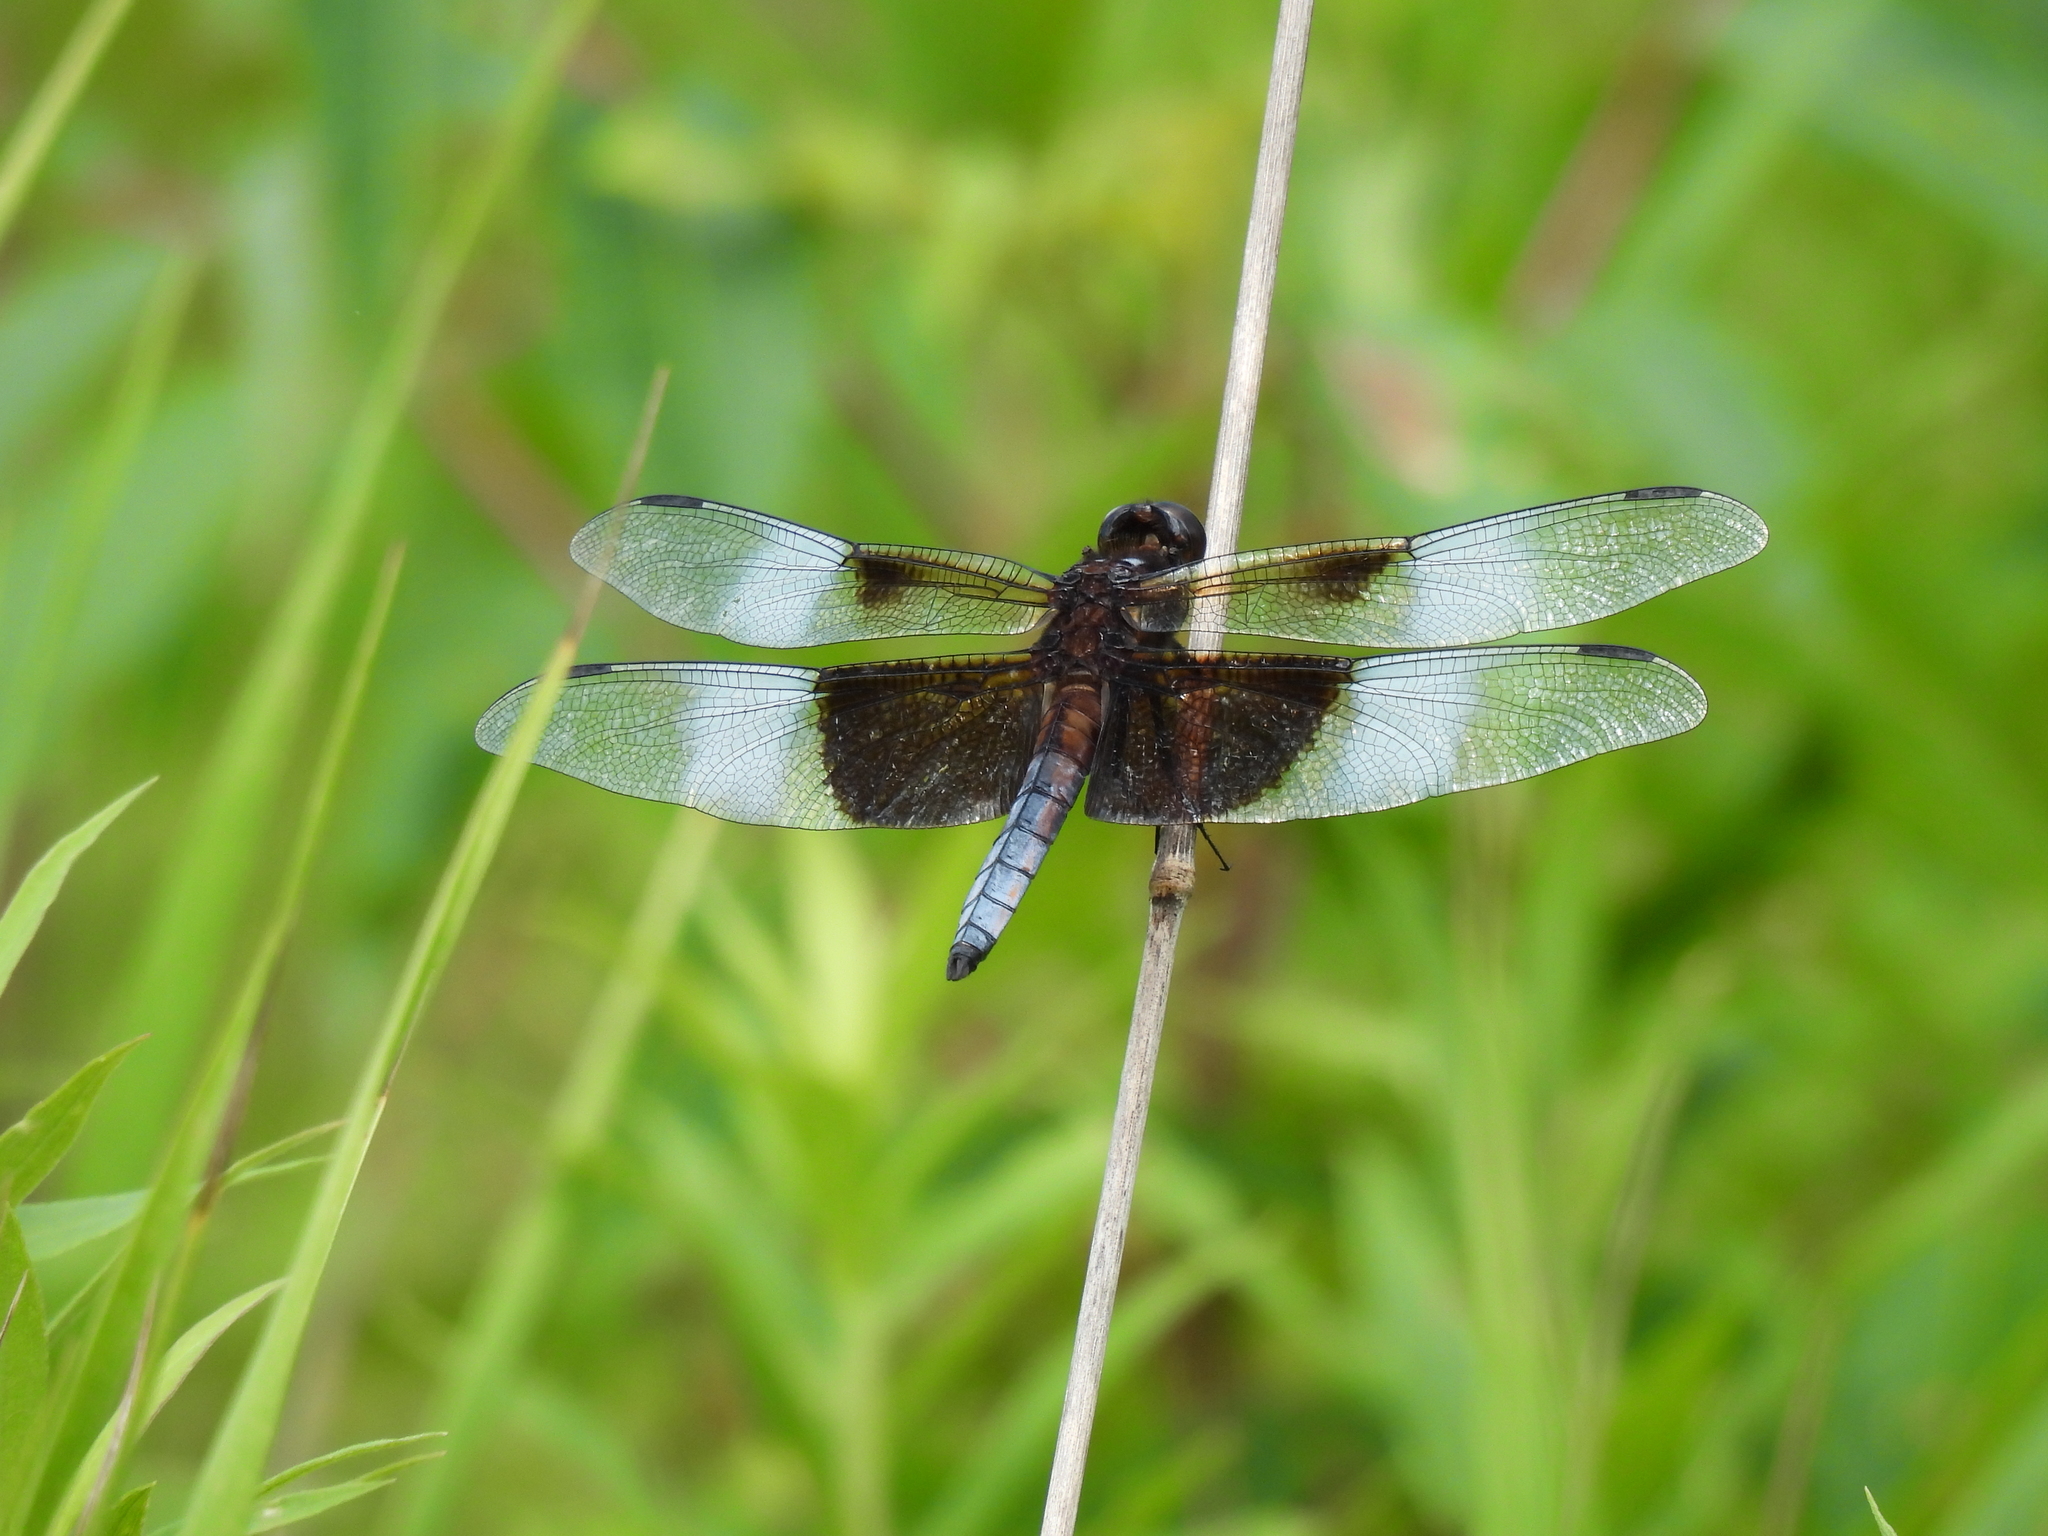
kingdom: Animalia
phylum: Arthropoda
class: Insecta
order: Odonata
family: Libellulidae
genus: Libellula
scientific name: Libellula luctuosa
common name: Widow skimmer
